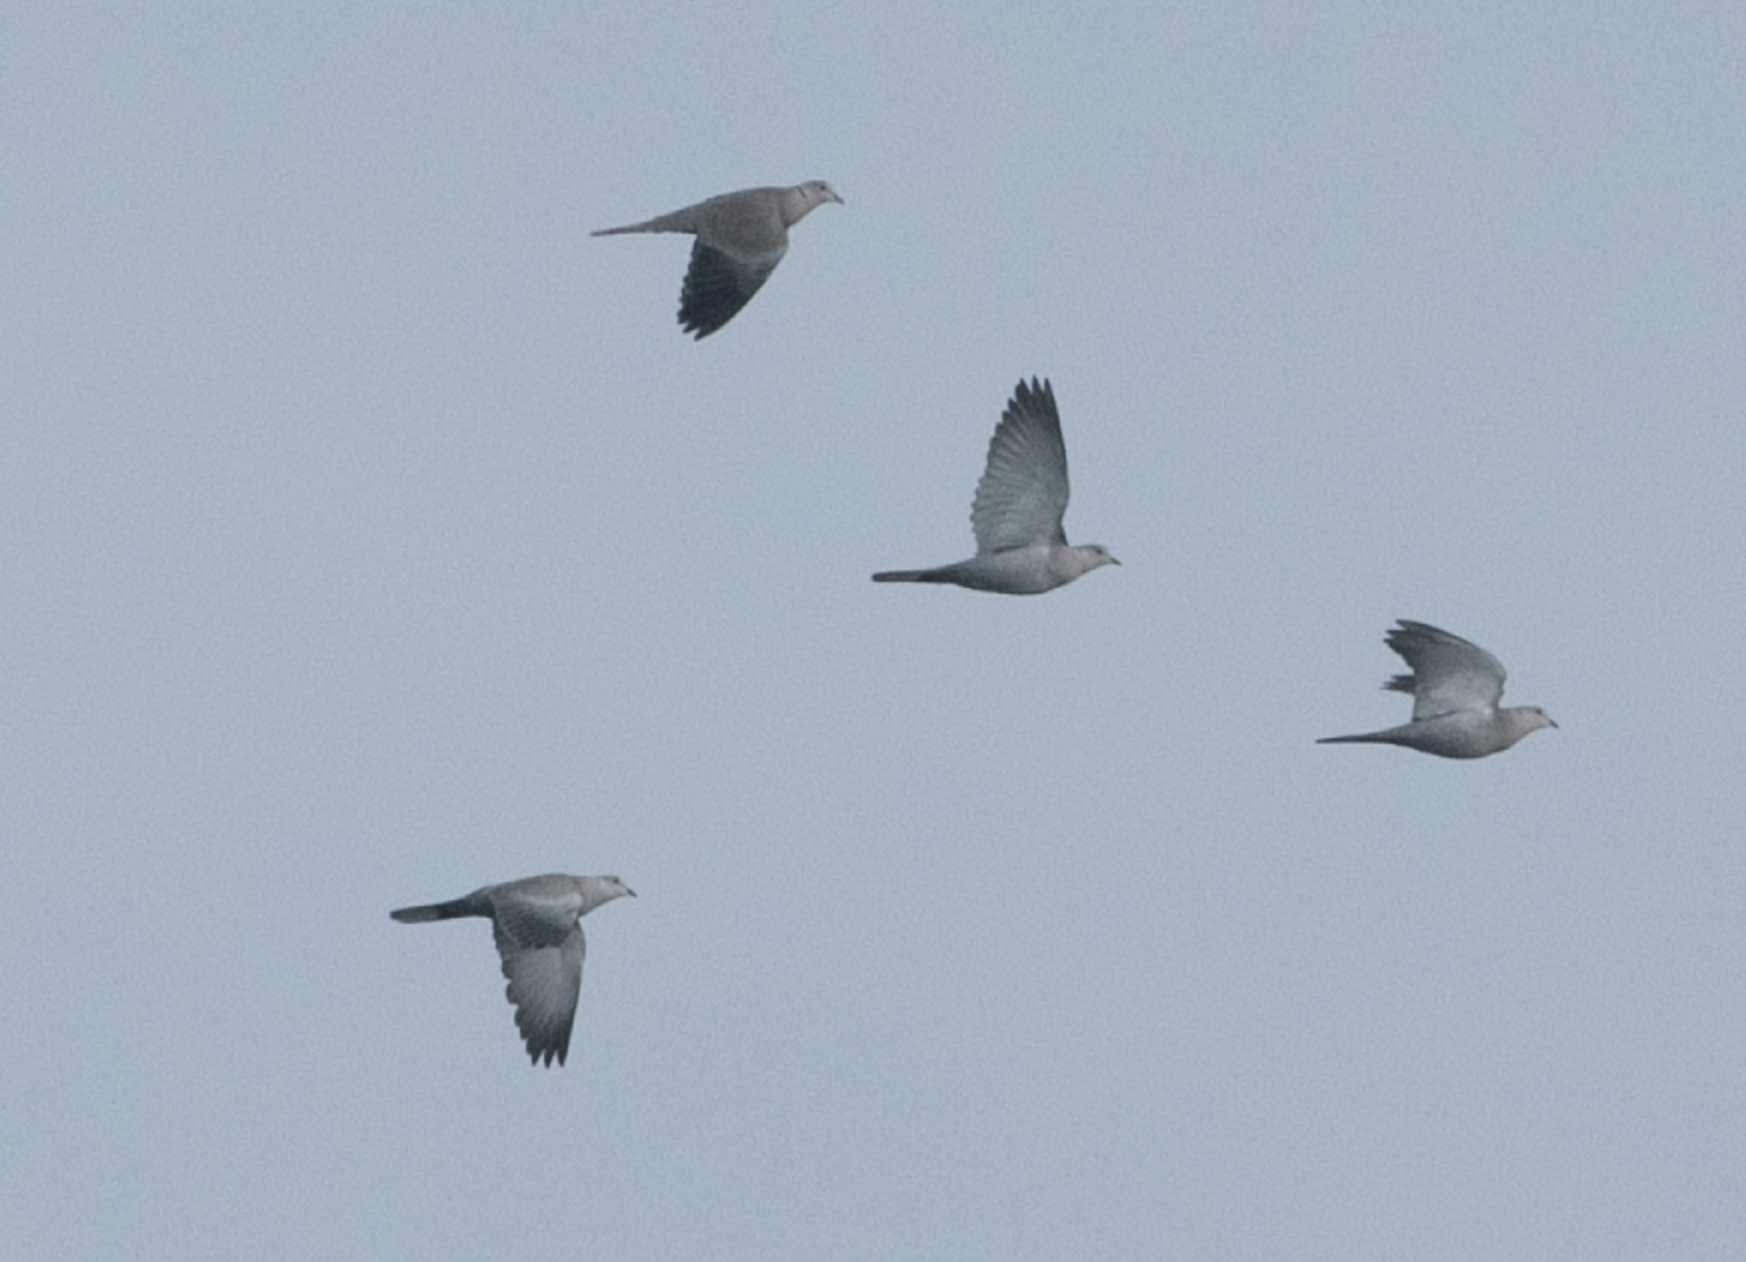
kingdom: Animalia
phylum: Chordata
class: Aves
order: Columbiformes
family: Columbidae
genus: Streptopelia
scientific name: Streptopelia decaocto
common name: Eurasian collared dove
